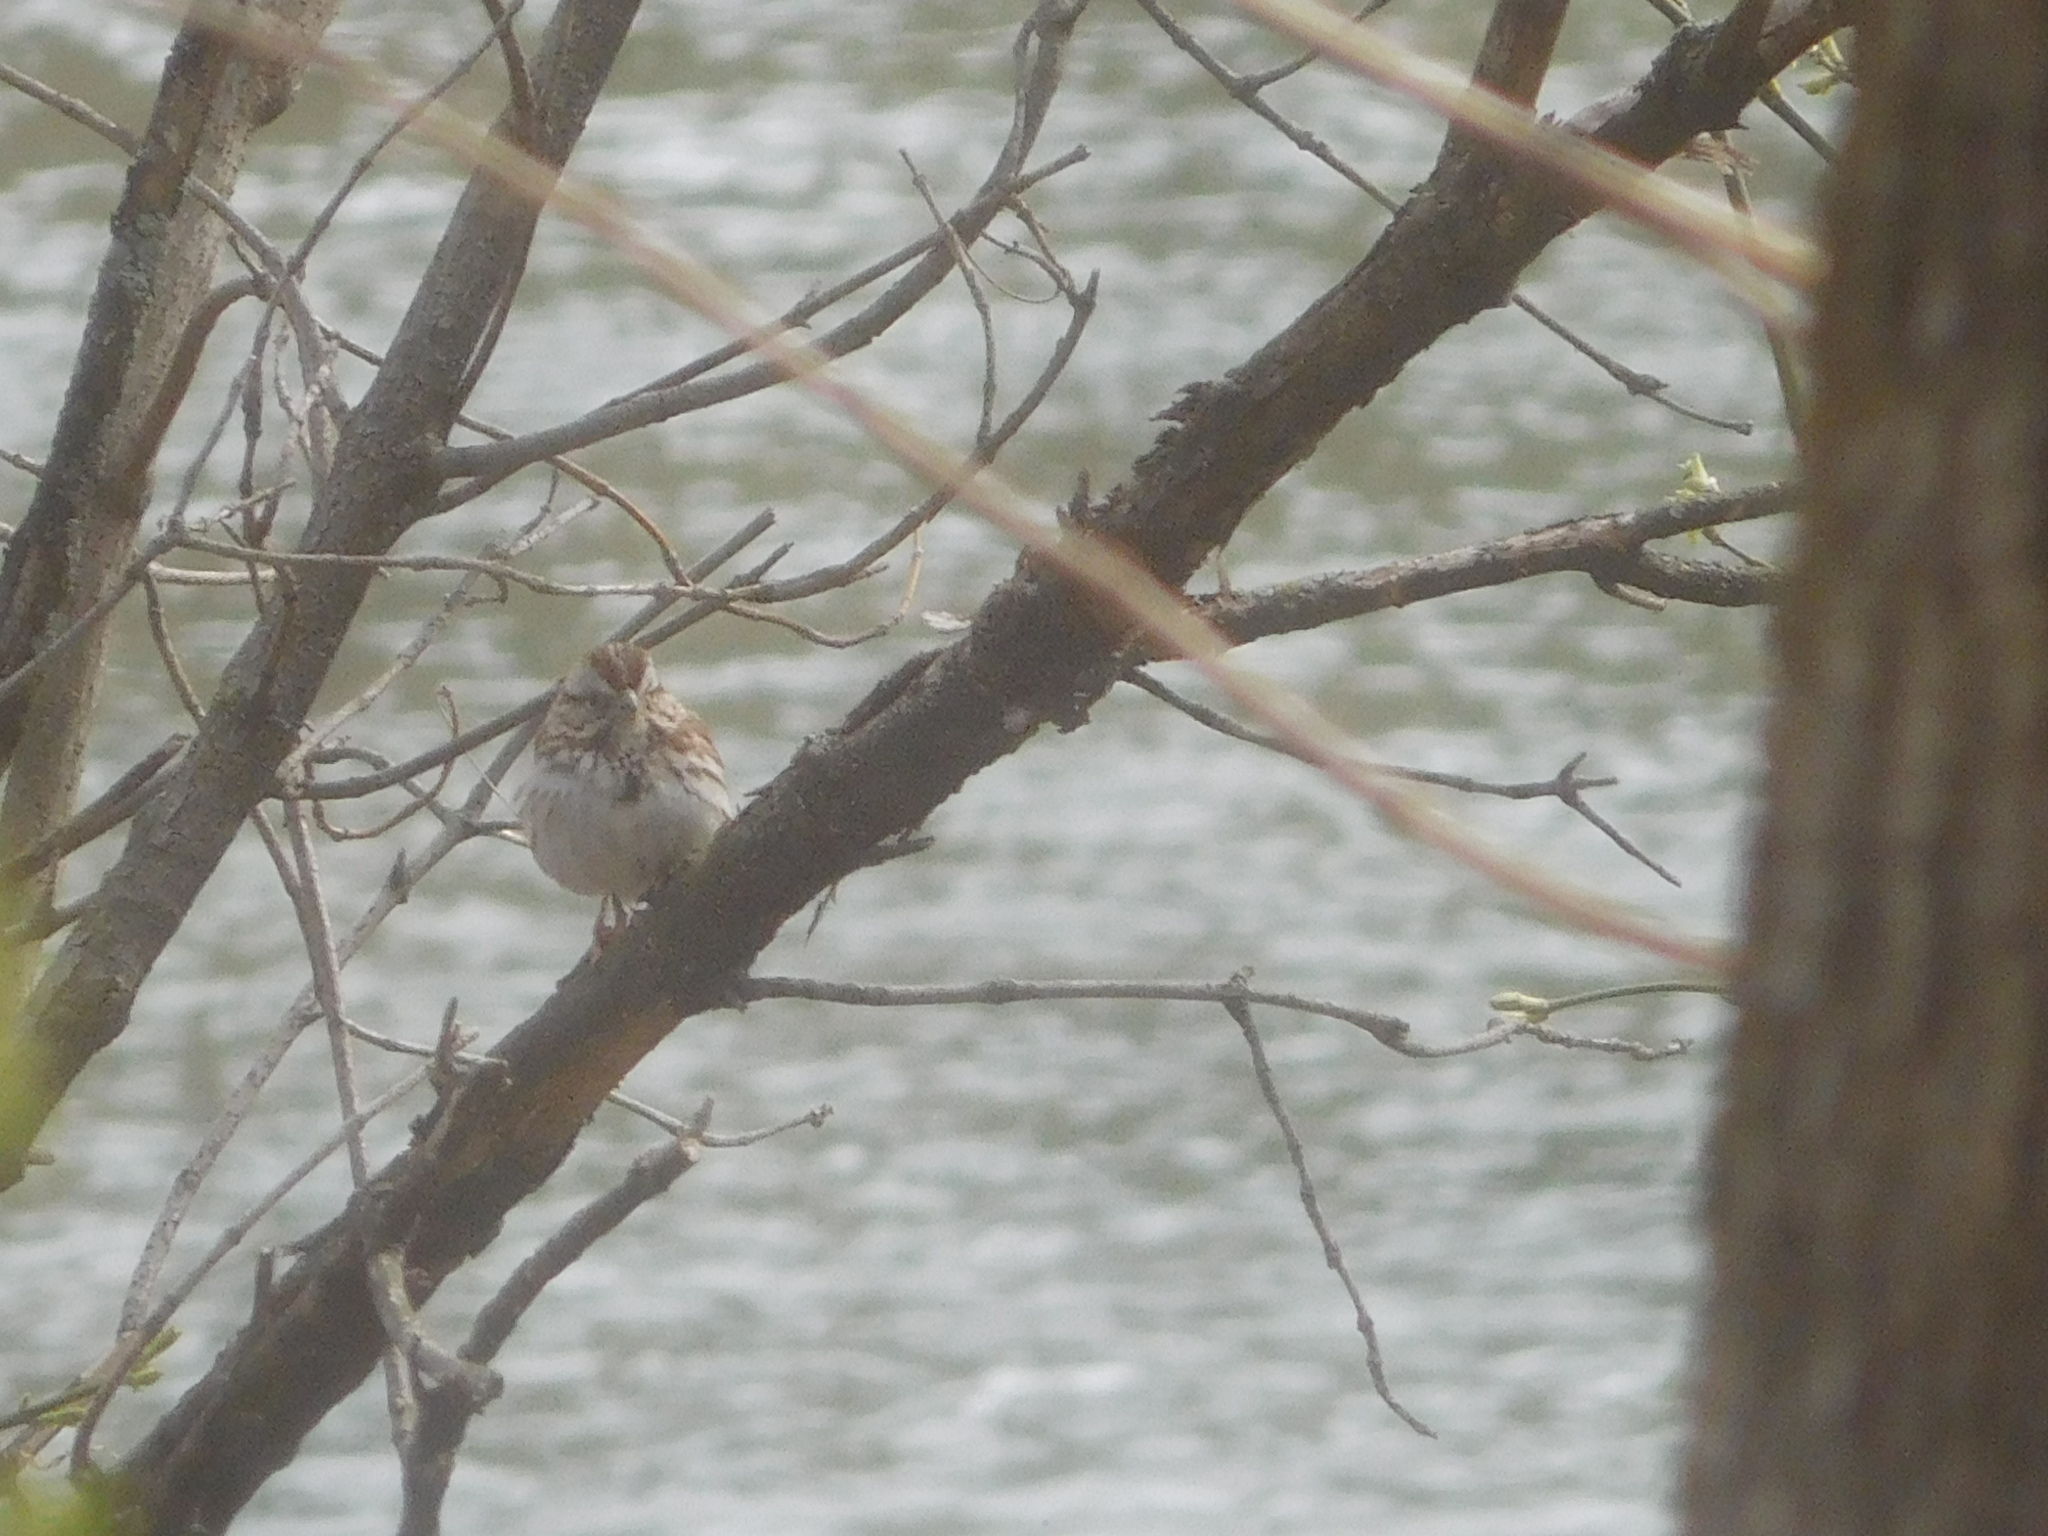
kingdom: Animalia
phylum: Chordata
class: Aves
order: Passeriformes
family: Passerellidae
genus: Melospiza
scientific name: Melospiza melodia
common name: Song sparrow
